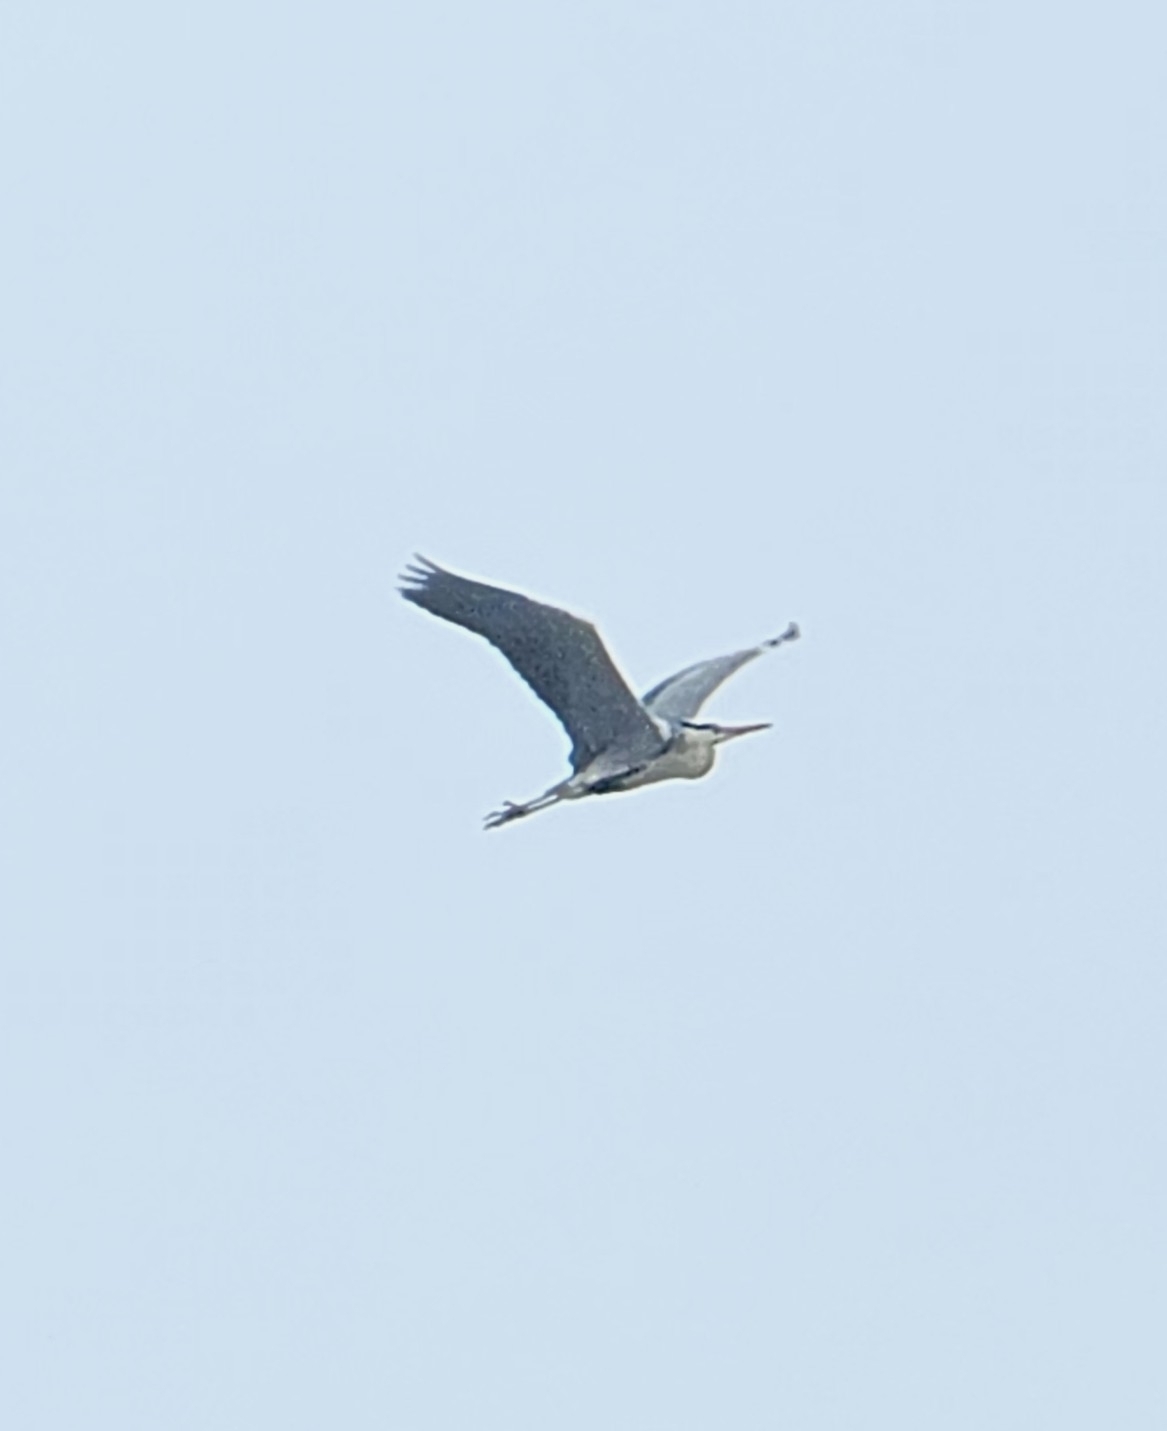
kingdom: Animalia
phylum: Chordata
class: Aves
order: Pelecaniformes
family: Ardeidae
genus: Ardea
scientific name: Ardea cinerea
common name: Grey heron
